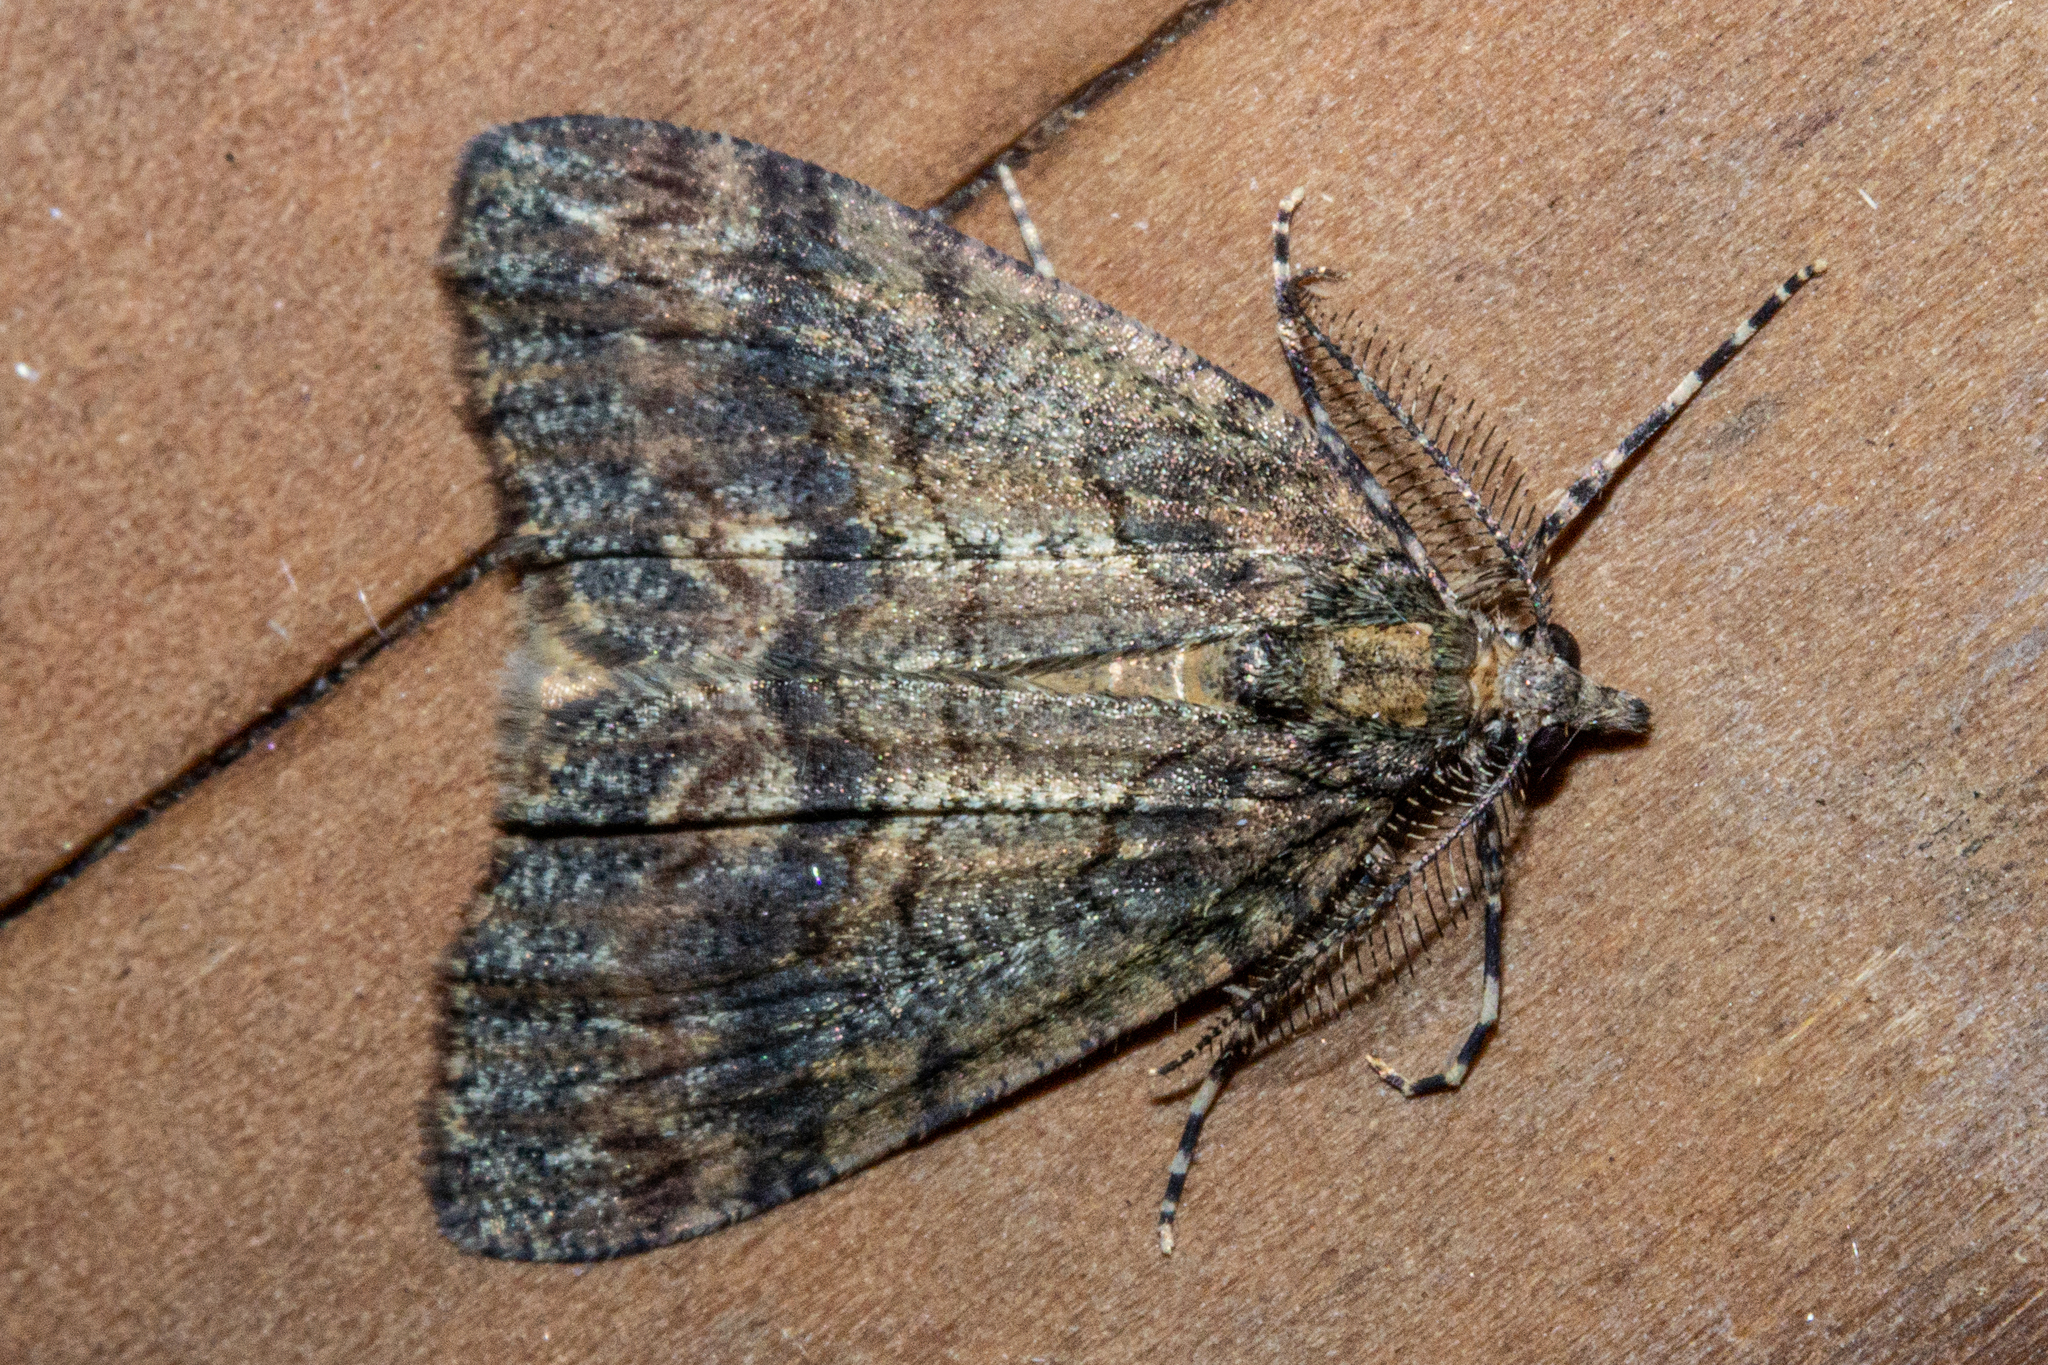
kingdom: Animalia
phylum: Arthropoda
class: Insecta
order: Lepidoptera
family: Geometridae
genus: Chalastra
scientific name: Chalastra ochrea
